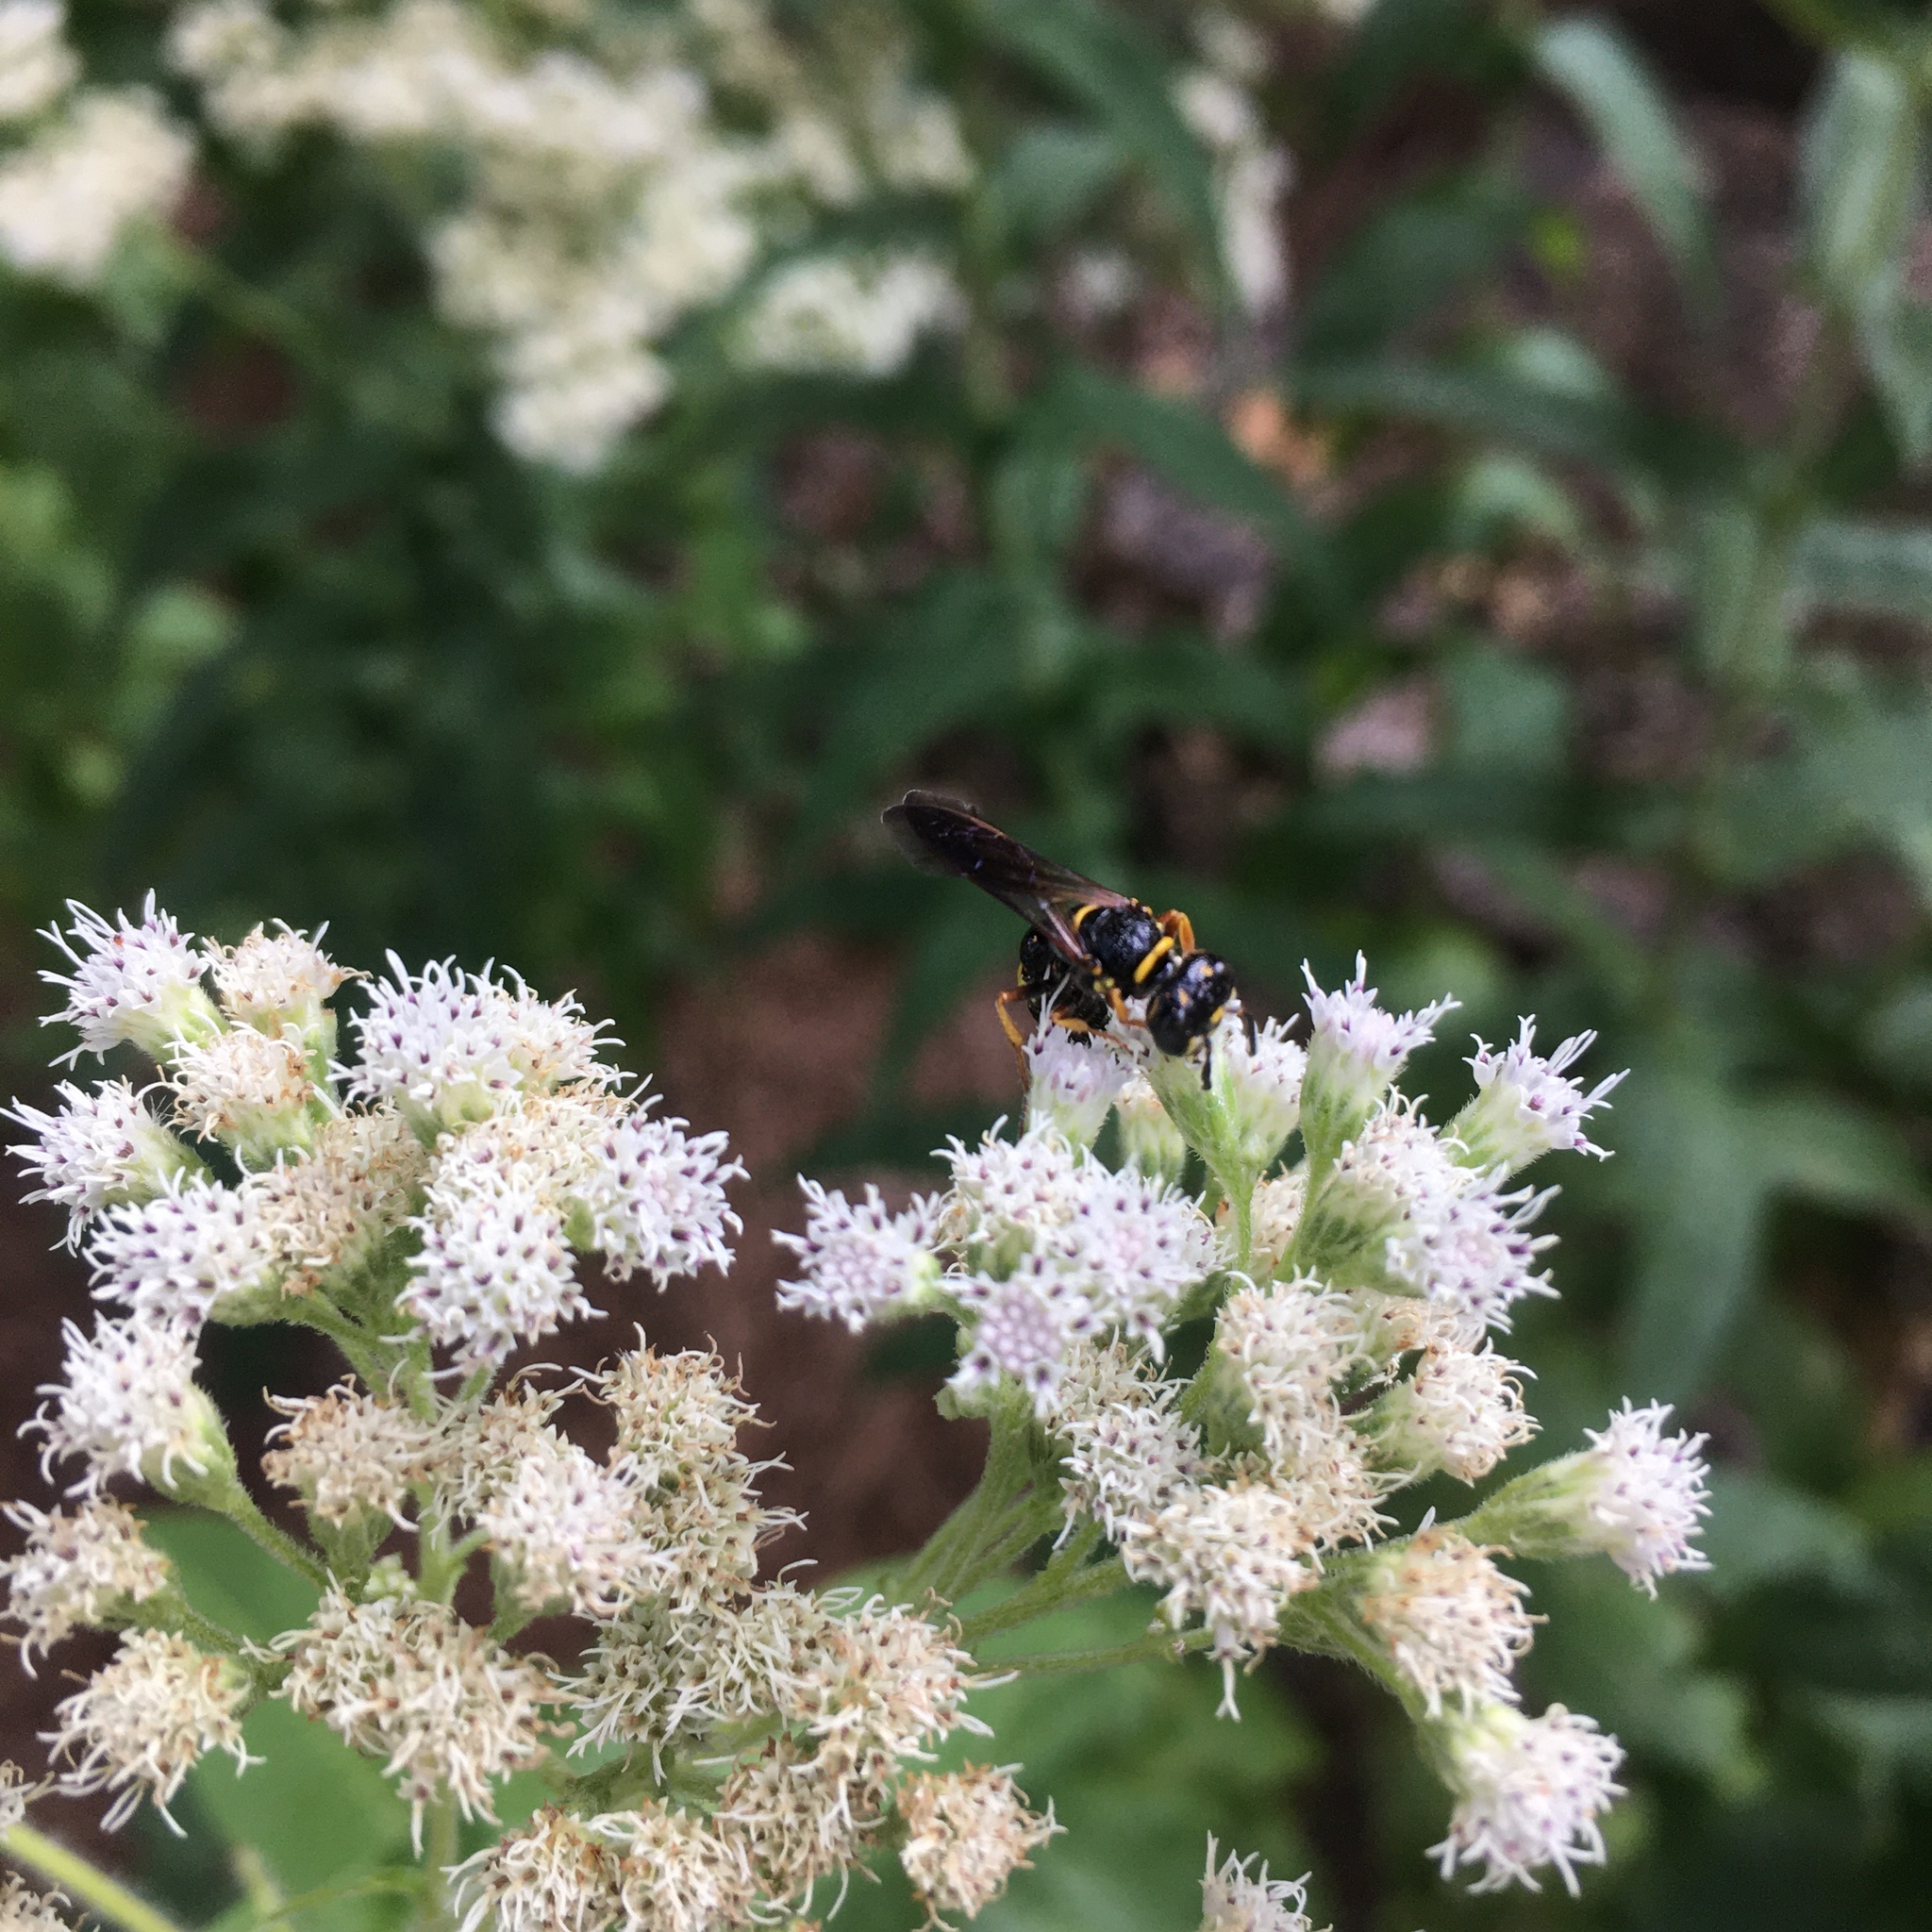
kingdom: Animalia
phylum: Arthropoda
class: Insecta
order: Hymenoptera
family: Crabronidae
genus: Philanthus
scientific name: Philanthus gibbosus
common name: Humped beewolf
